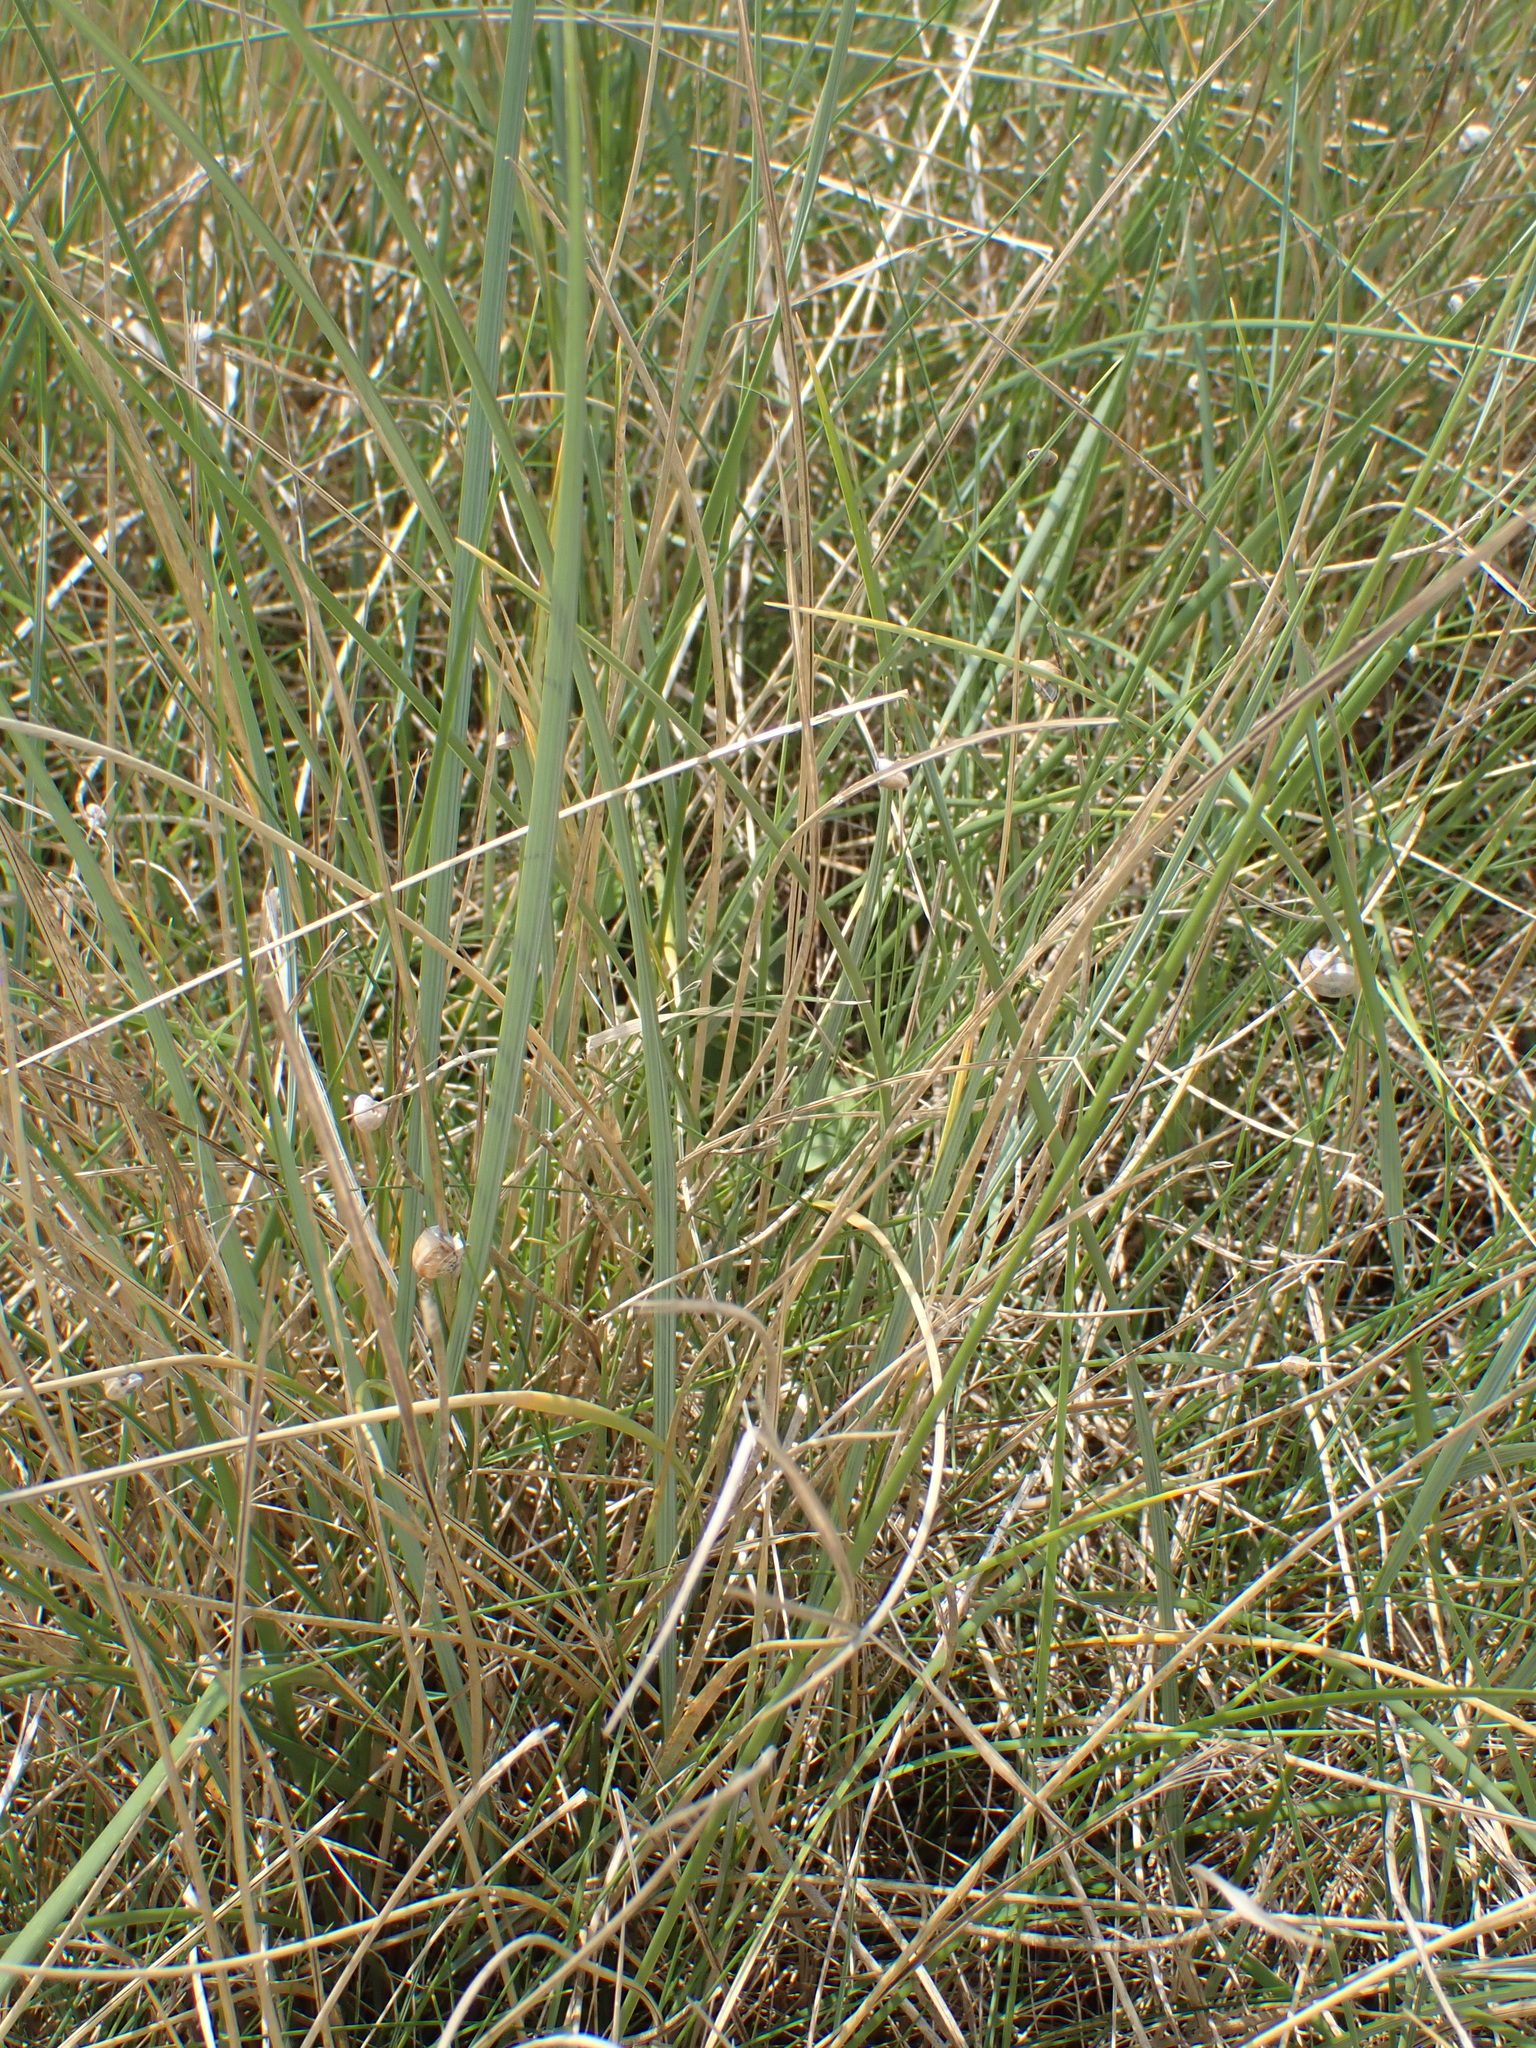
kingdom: Plantae
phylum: Tracheophyta
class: Liliopsida
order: Poales
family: Poaceae
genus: Calamagrostis
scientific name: Calamagrostis arenaria
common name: European beachgrass
